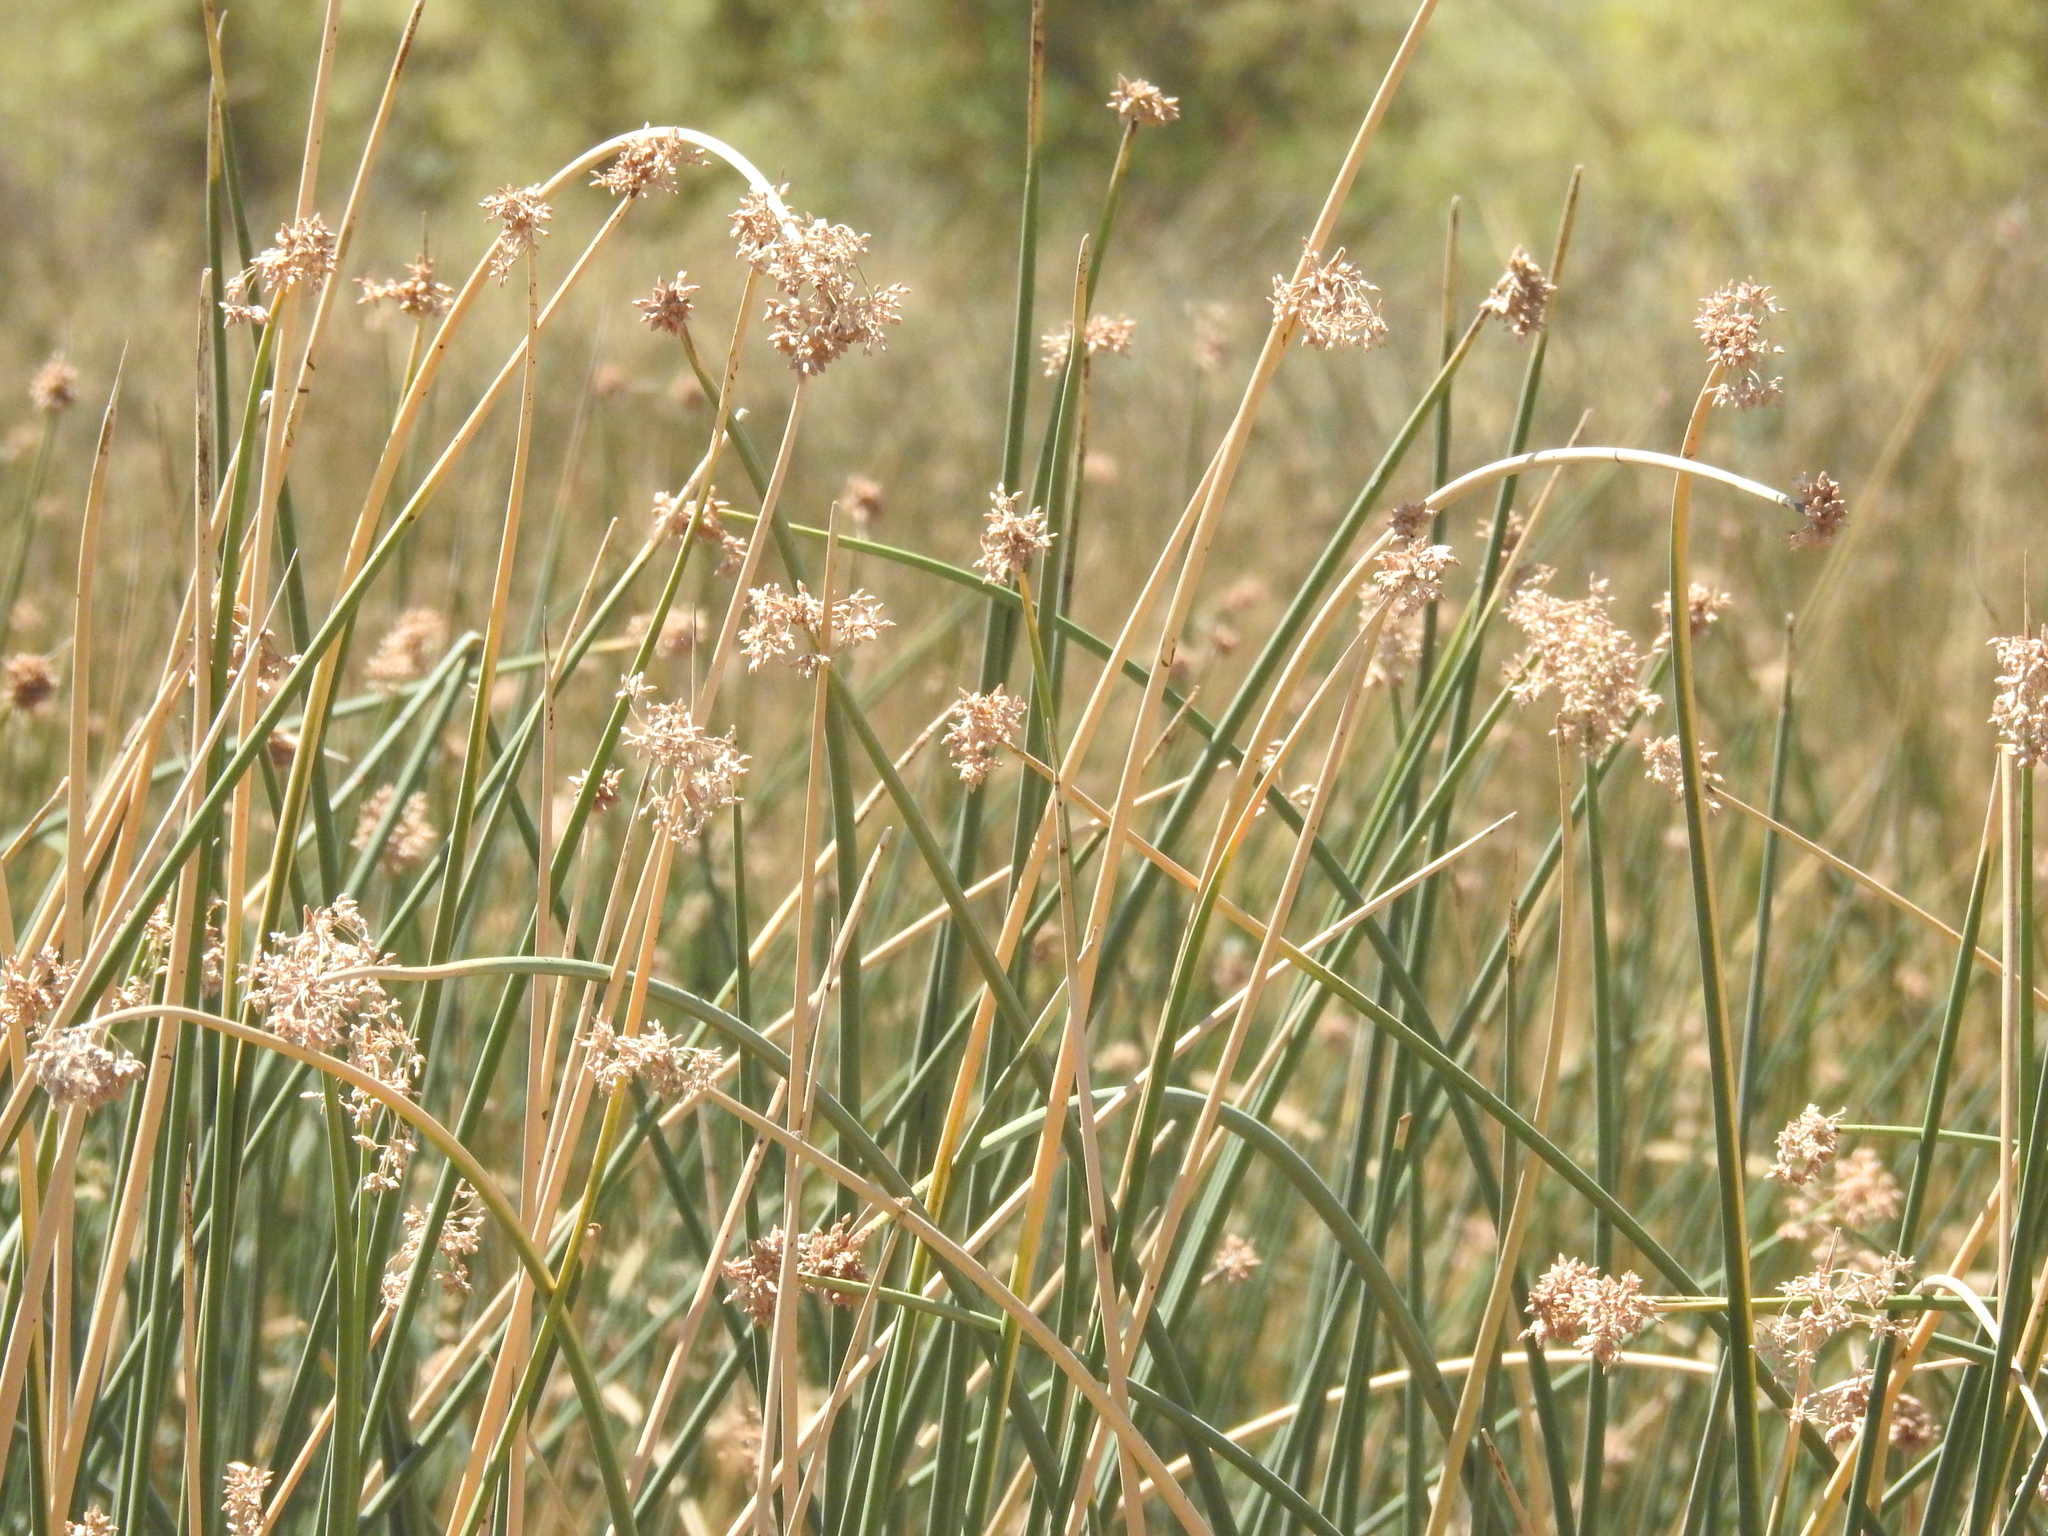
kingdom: Plantae
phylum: Tracheophyta
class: Liliopsida
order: Poales
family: Cyperaceae
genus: Schoenoplectus
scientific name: Schoenoplectus californicus
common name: California bulrush
